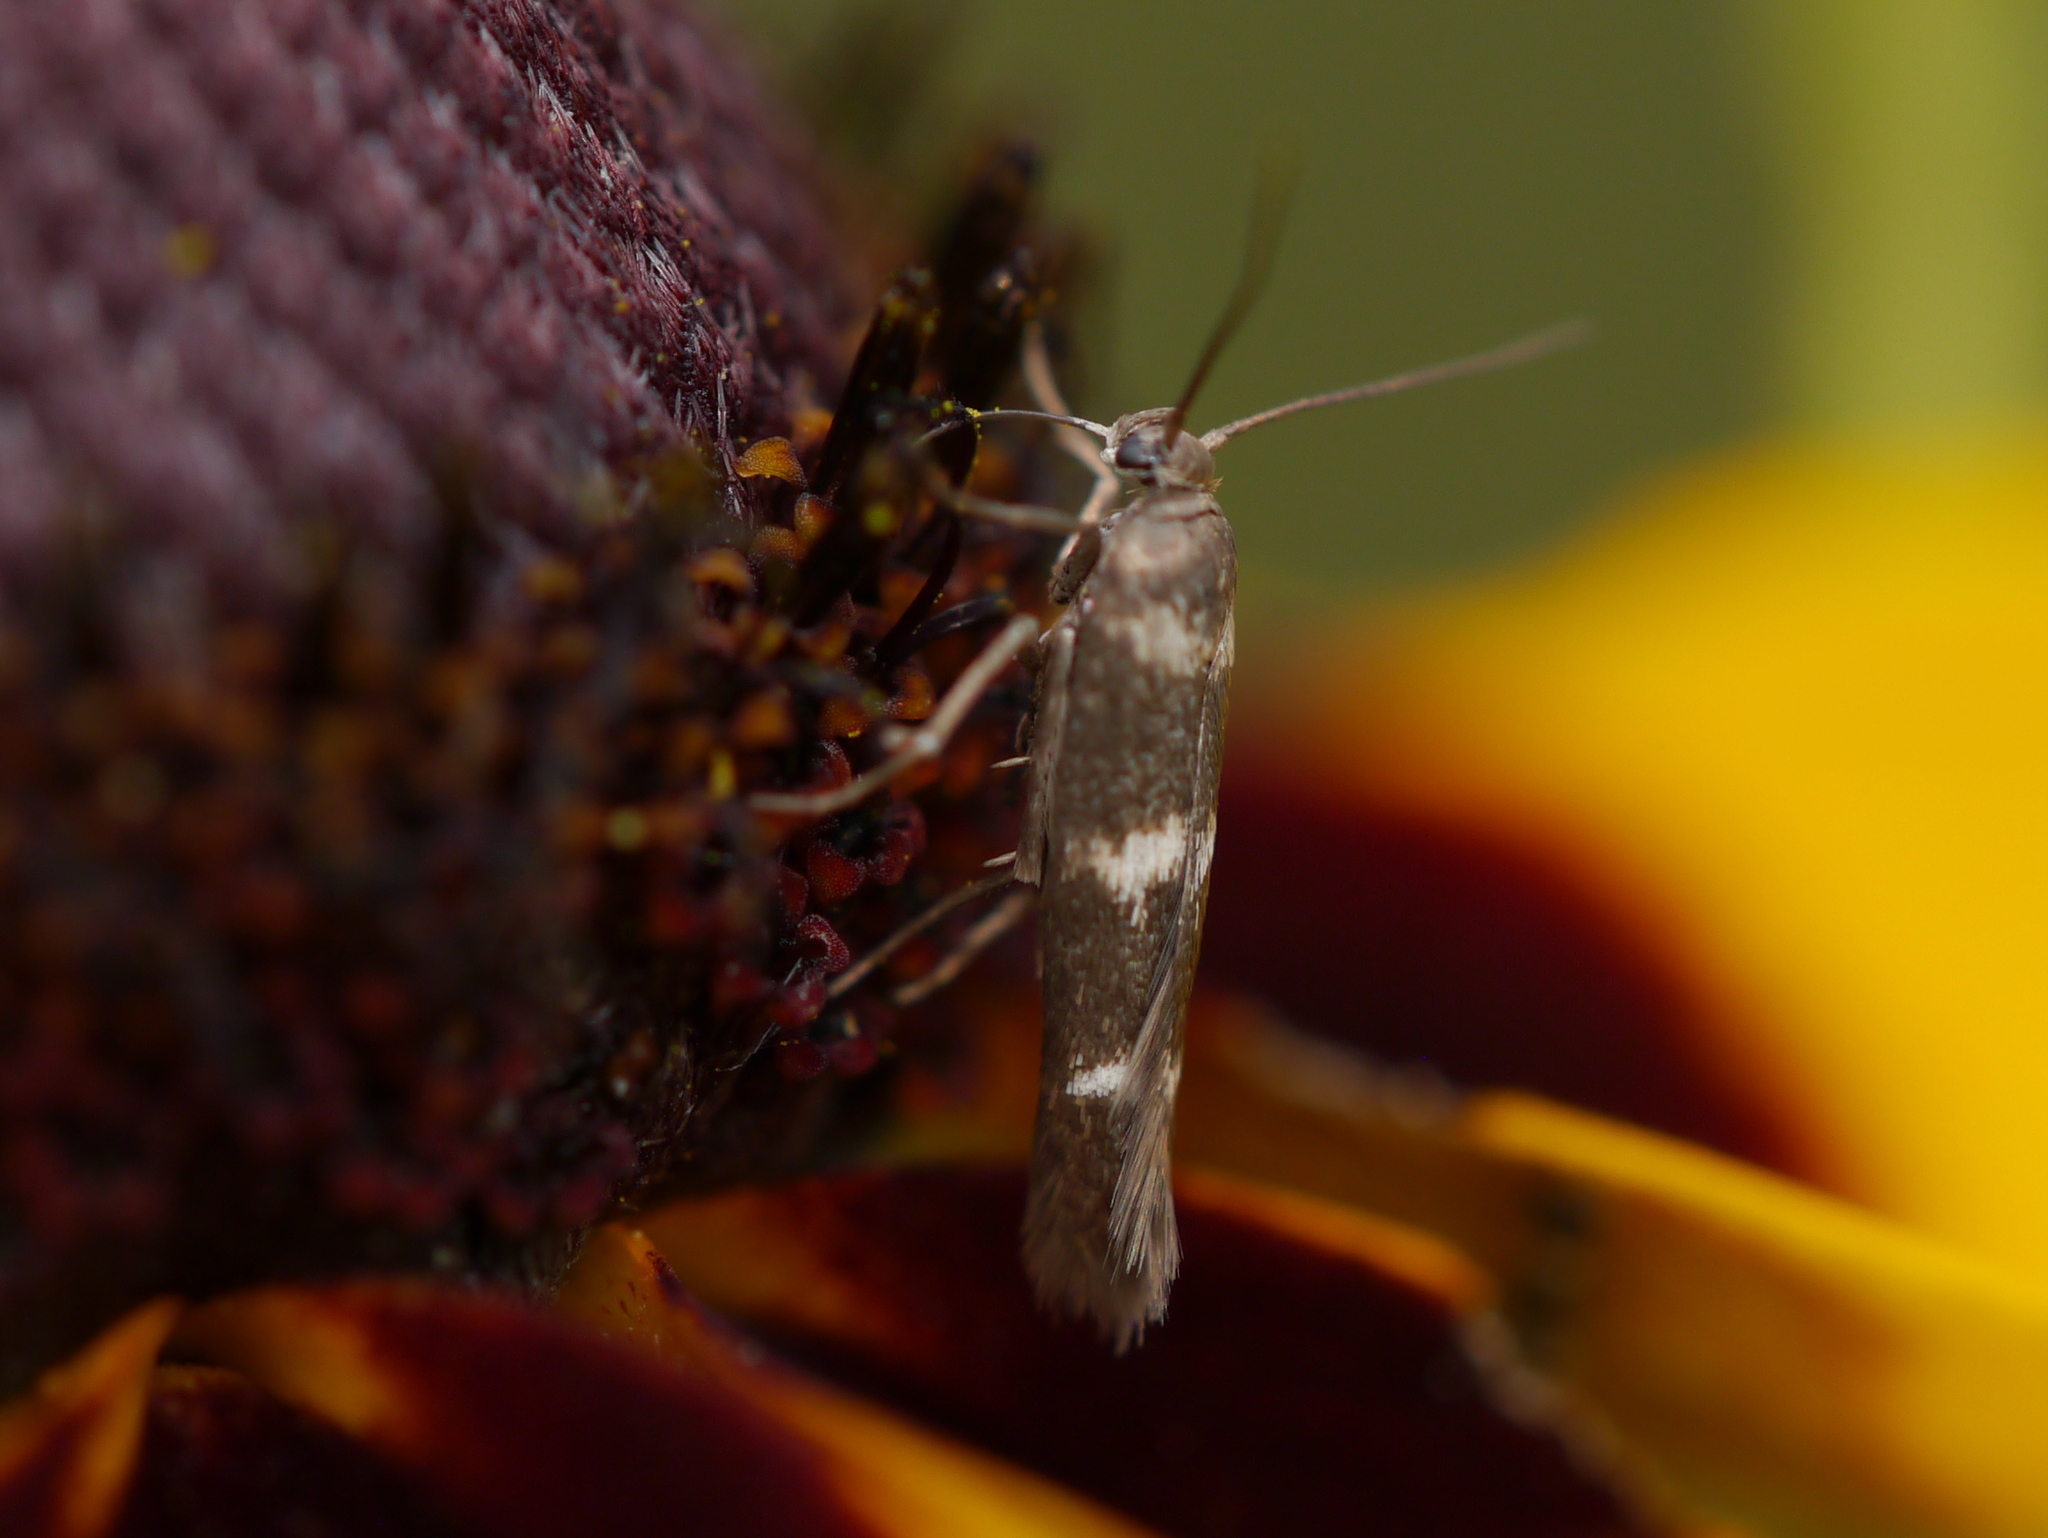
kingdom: Animalia
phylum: Arthropoda
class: Insecta
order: Lepidoptera
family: Scythrididae
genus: Scythris
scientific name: Scythris trivinctella
